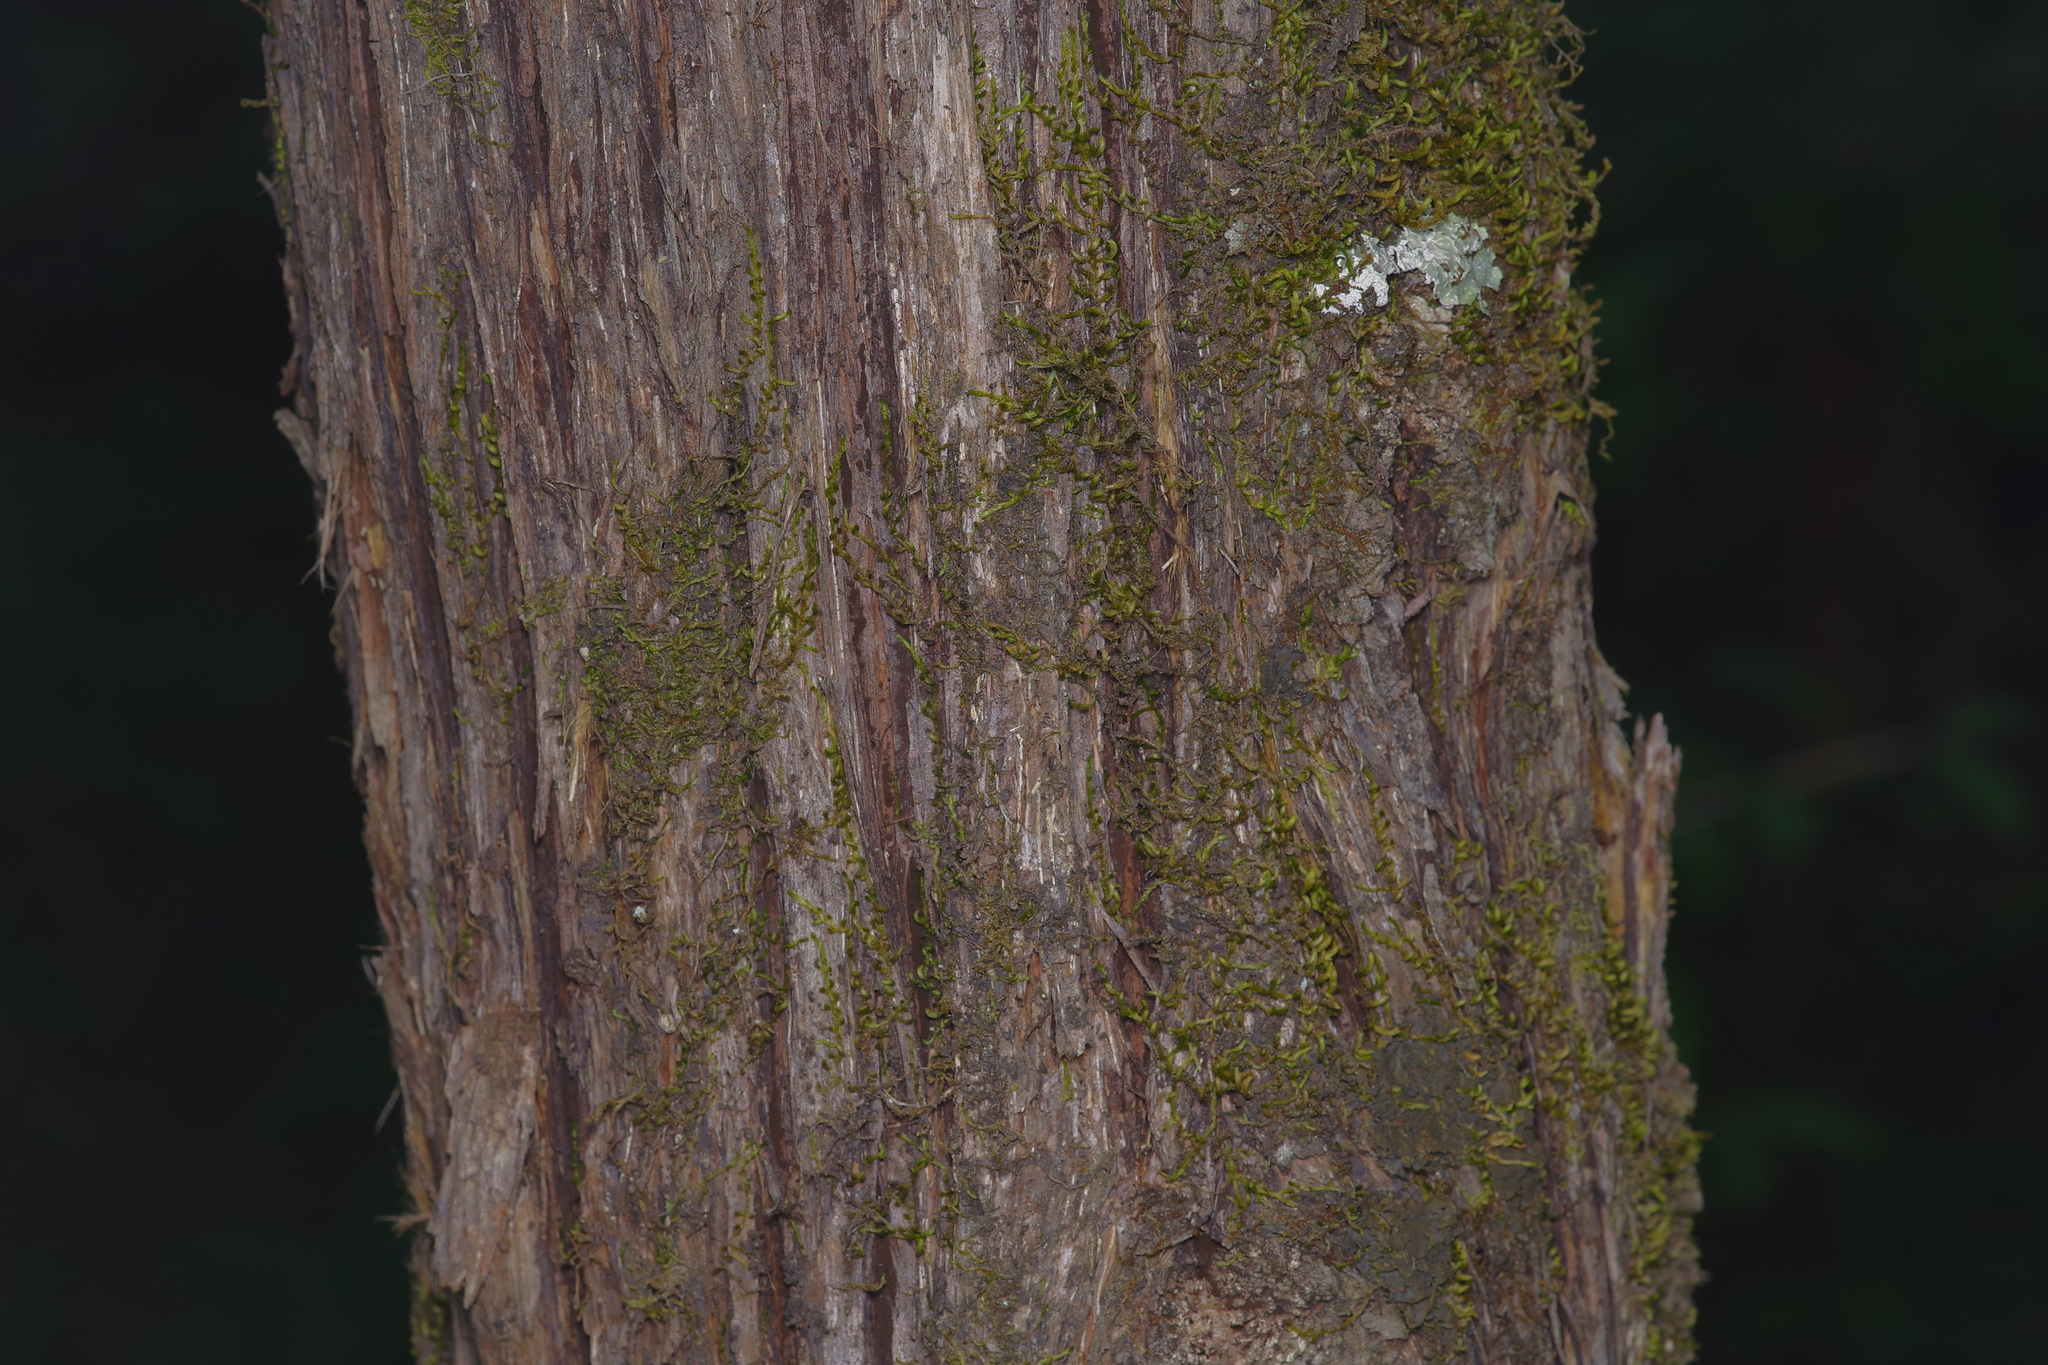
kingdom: Plantae
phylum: Tracheophyta
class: Pinopsida
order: Pinales
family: Cupressaceae
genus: Juniperus
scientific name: Juniperus virginiana
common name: Red juniper
